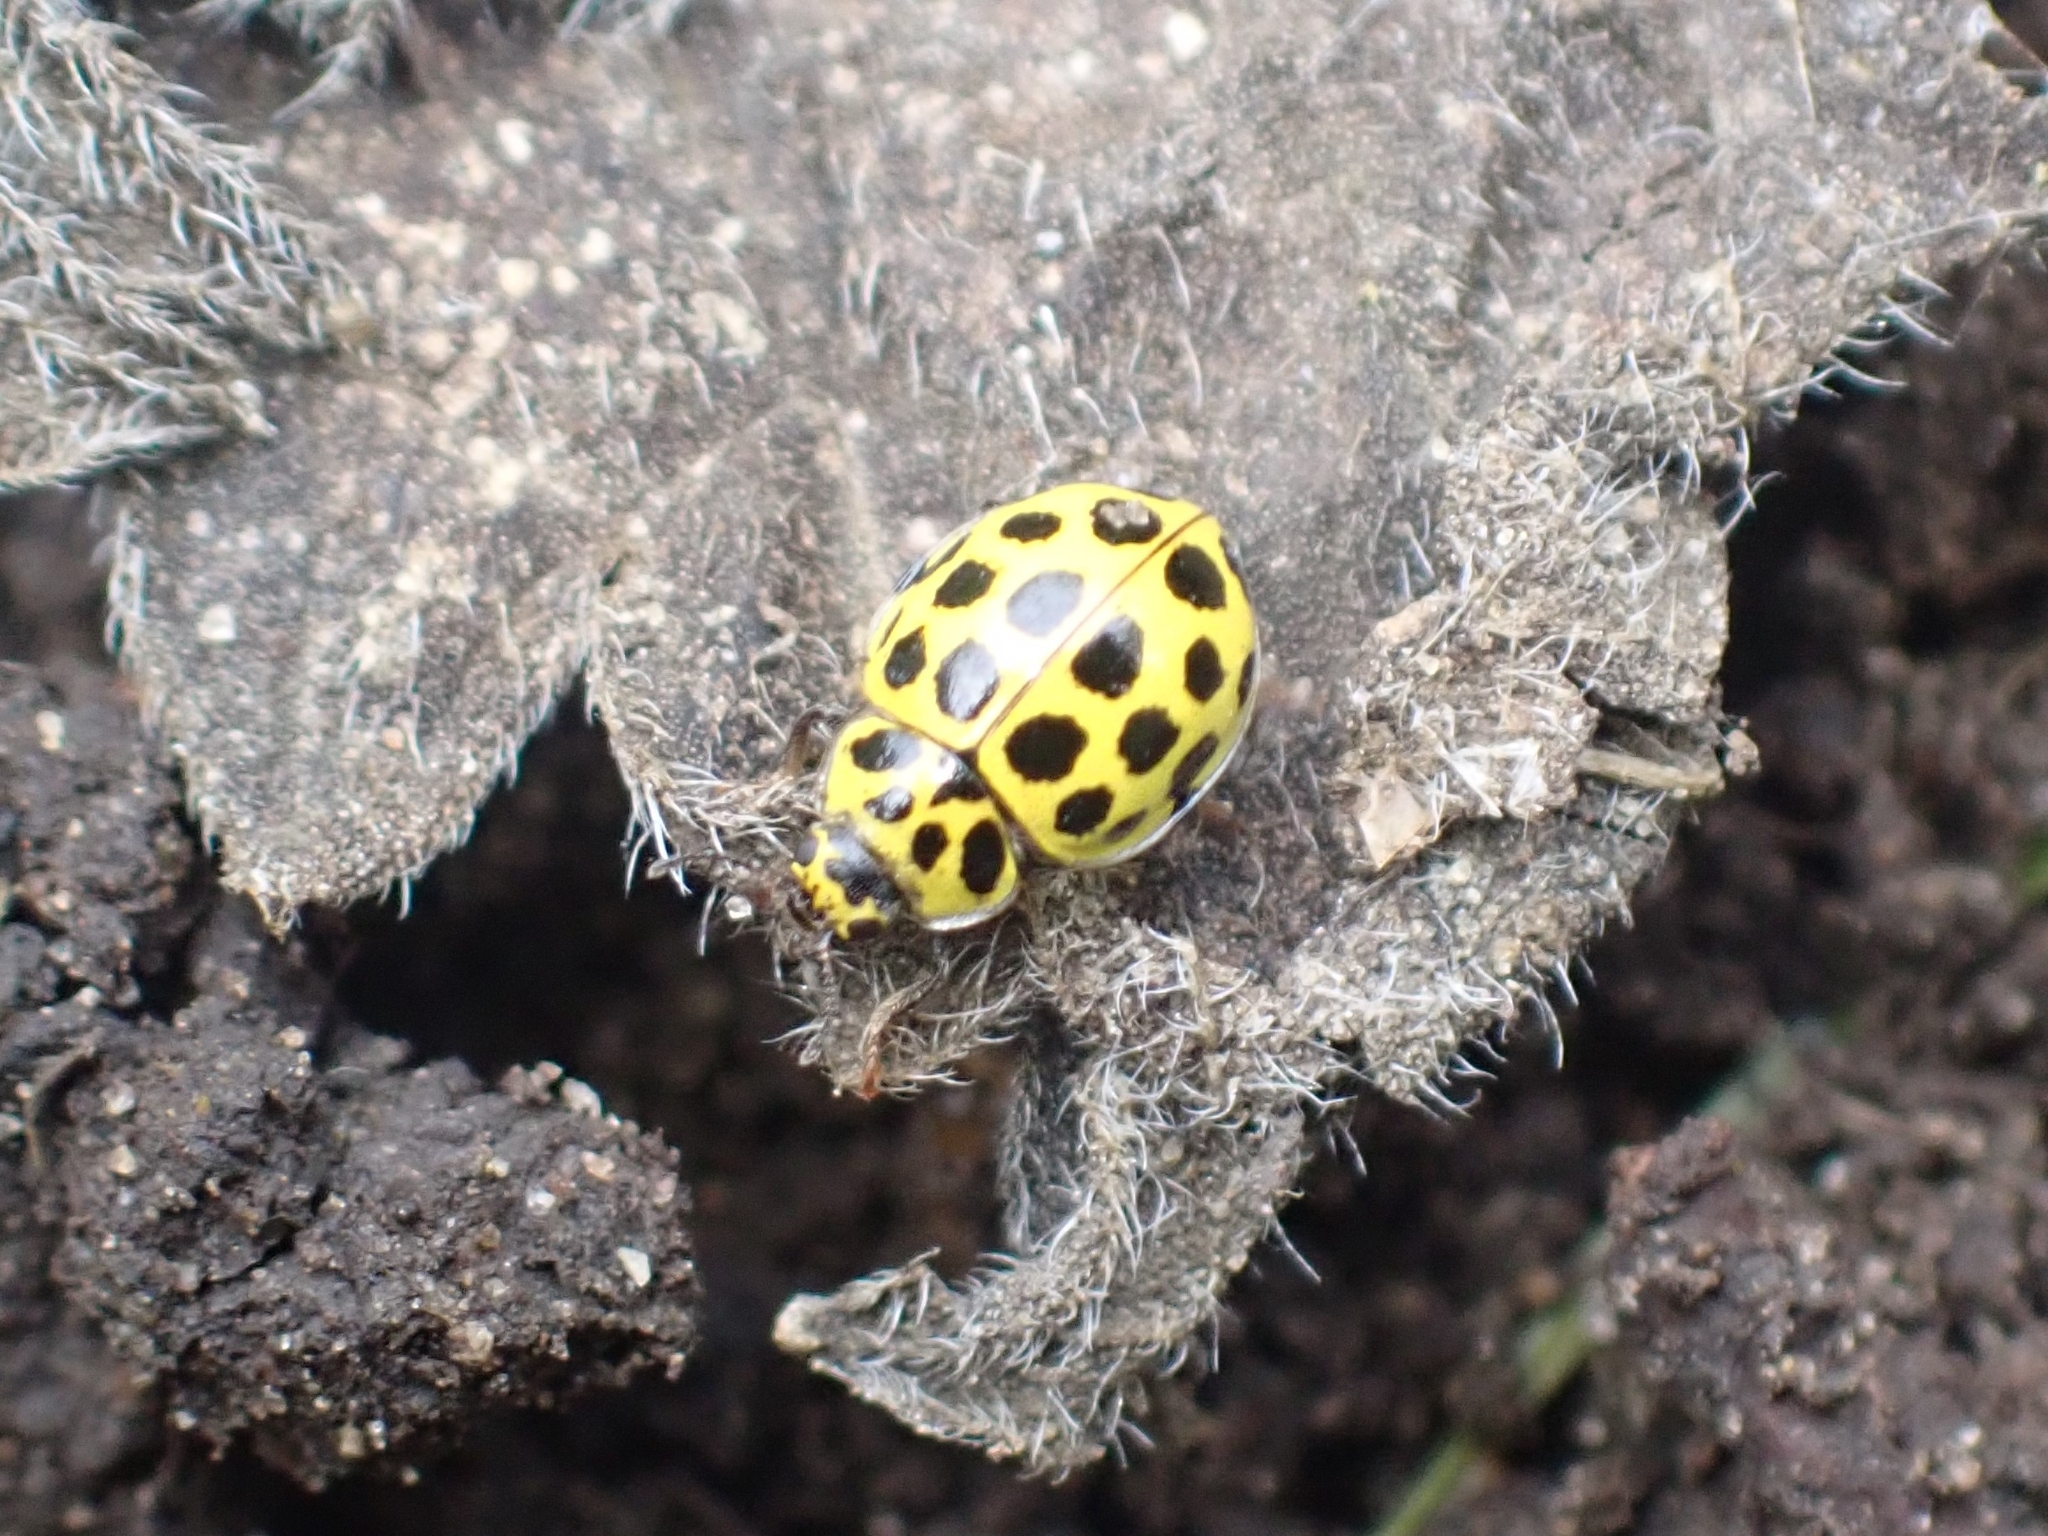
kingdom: Animalia
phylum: Arthropoda
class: Insecta
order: Coleoptera
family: Coccinellidae
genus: Psyllobora
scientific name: Psyllobora vigintiduopunctata
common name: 22-spot ladybird
